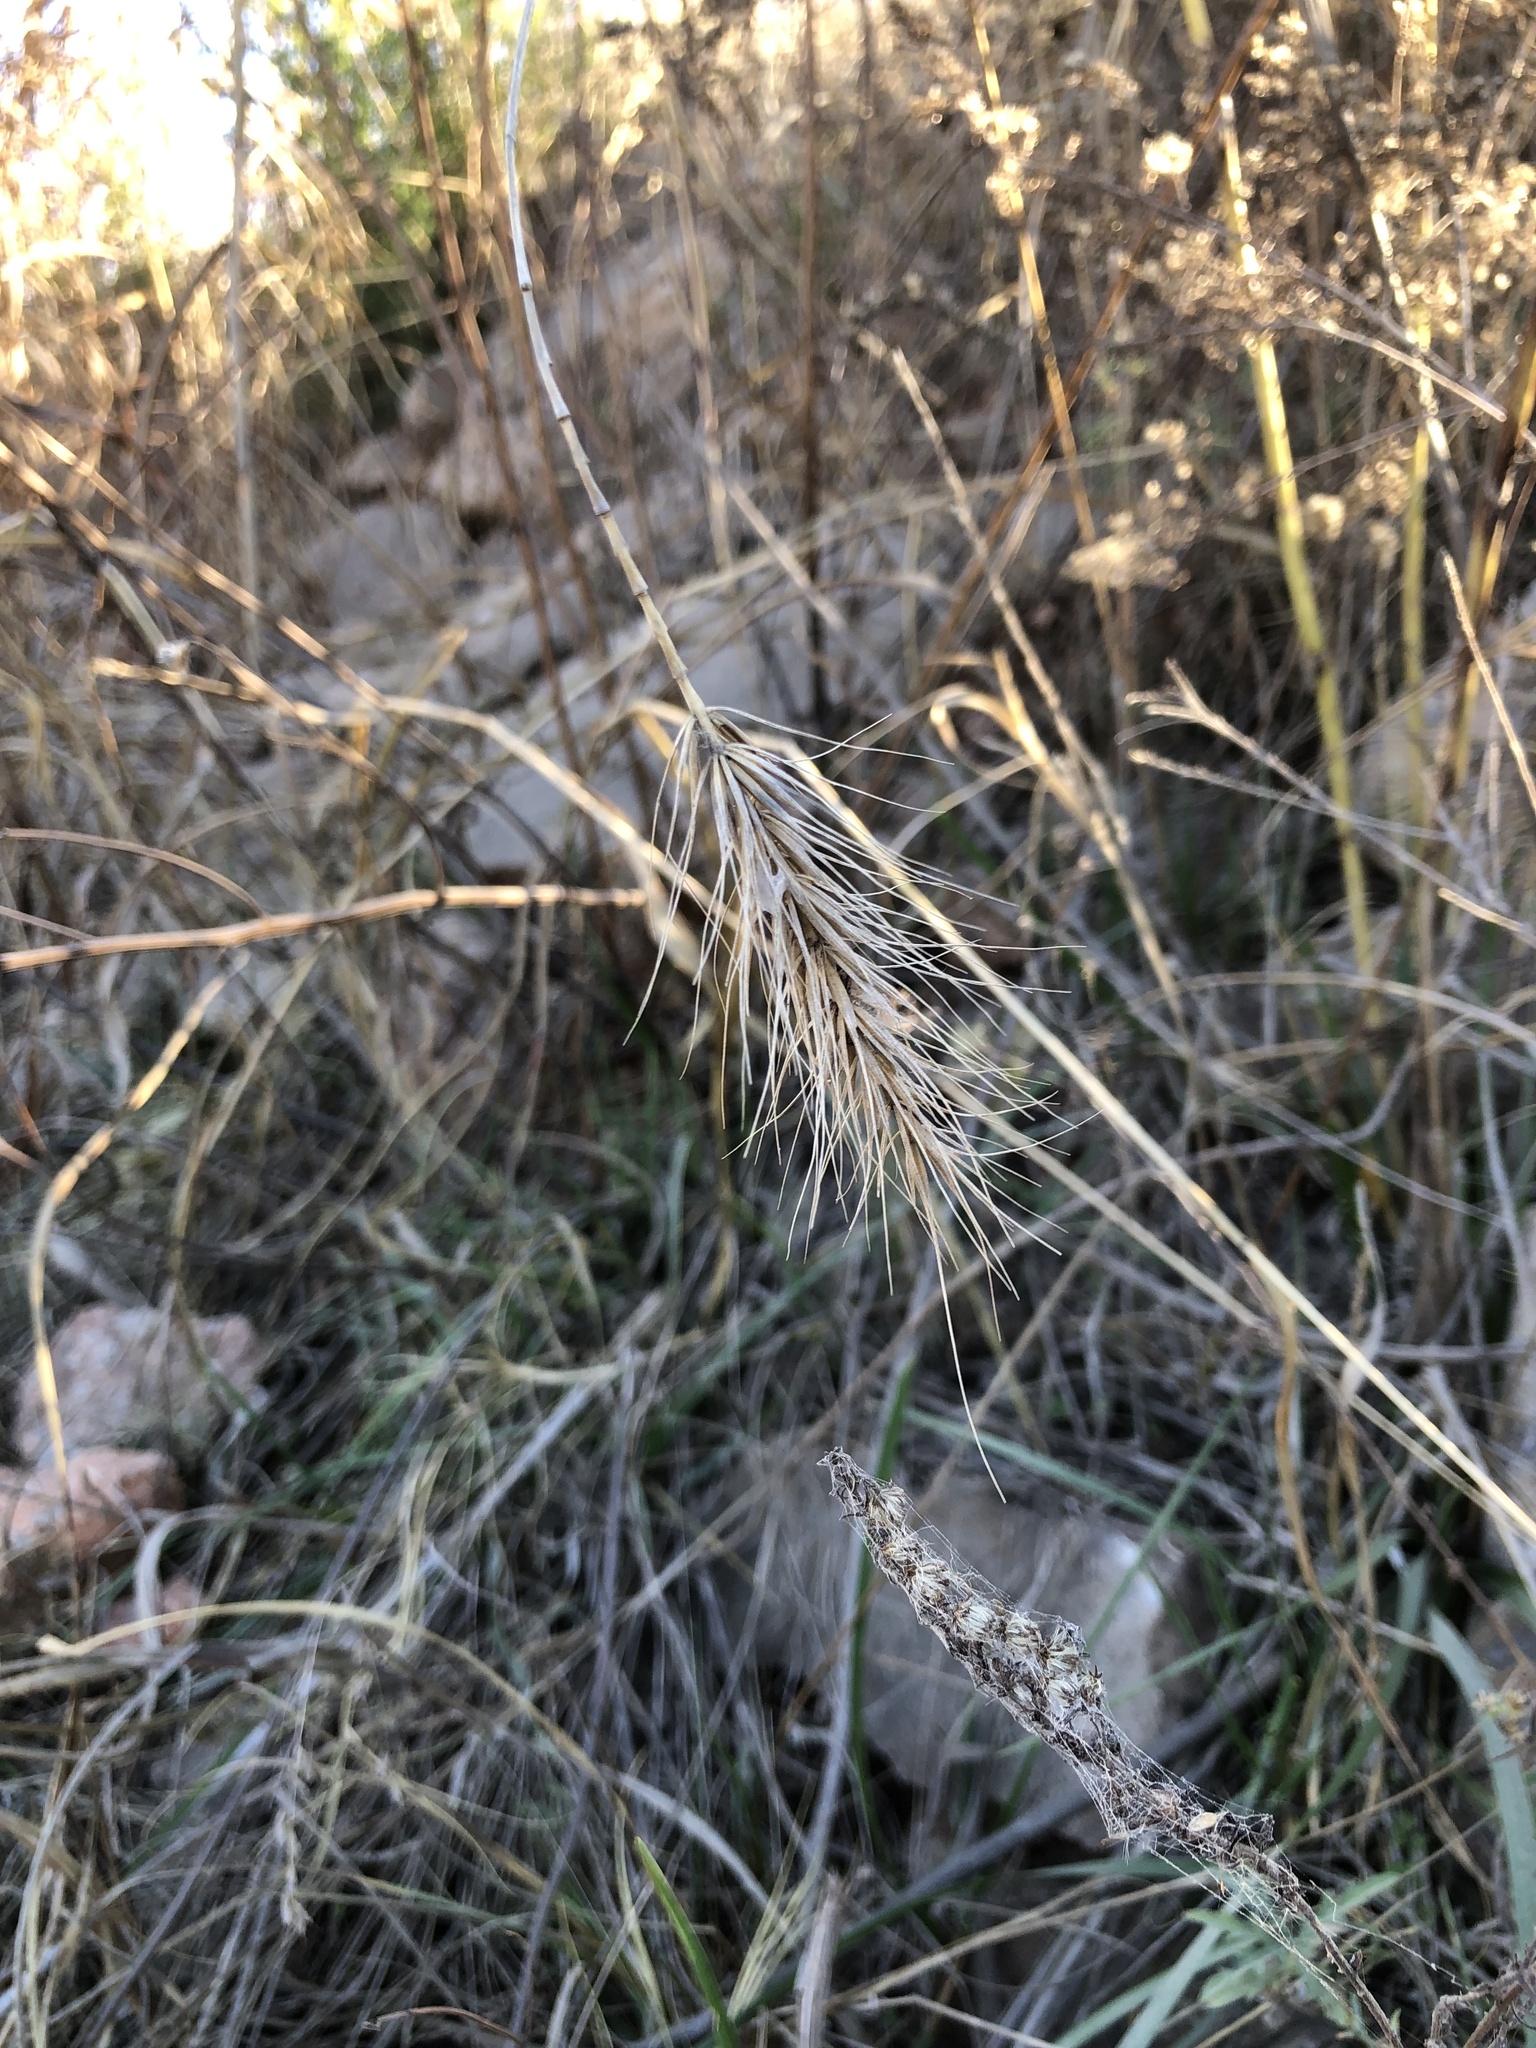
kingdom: Plantae
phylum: Tracheophyta
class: Liliopsida
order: Poales
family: Poaceae
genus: Elymus
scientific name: Elymus canadensis
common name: Canada wild rye
